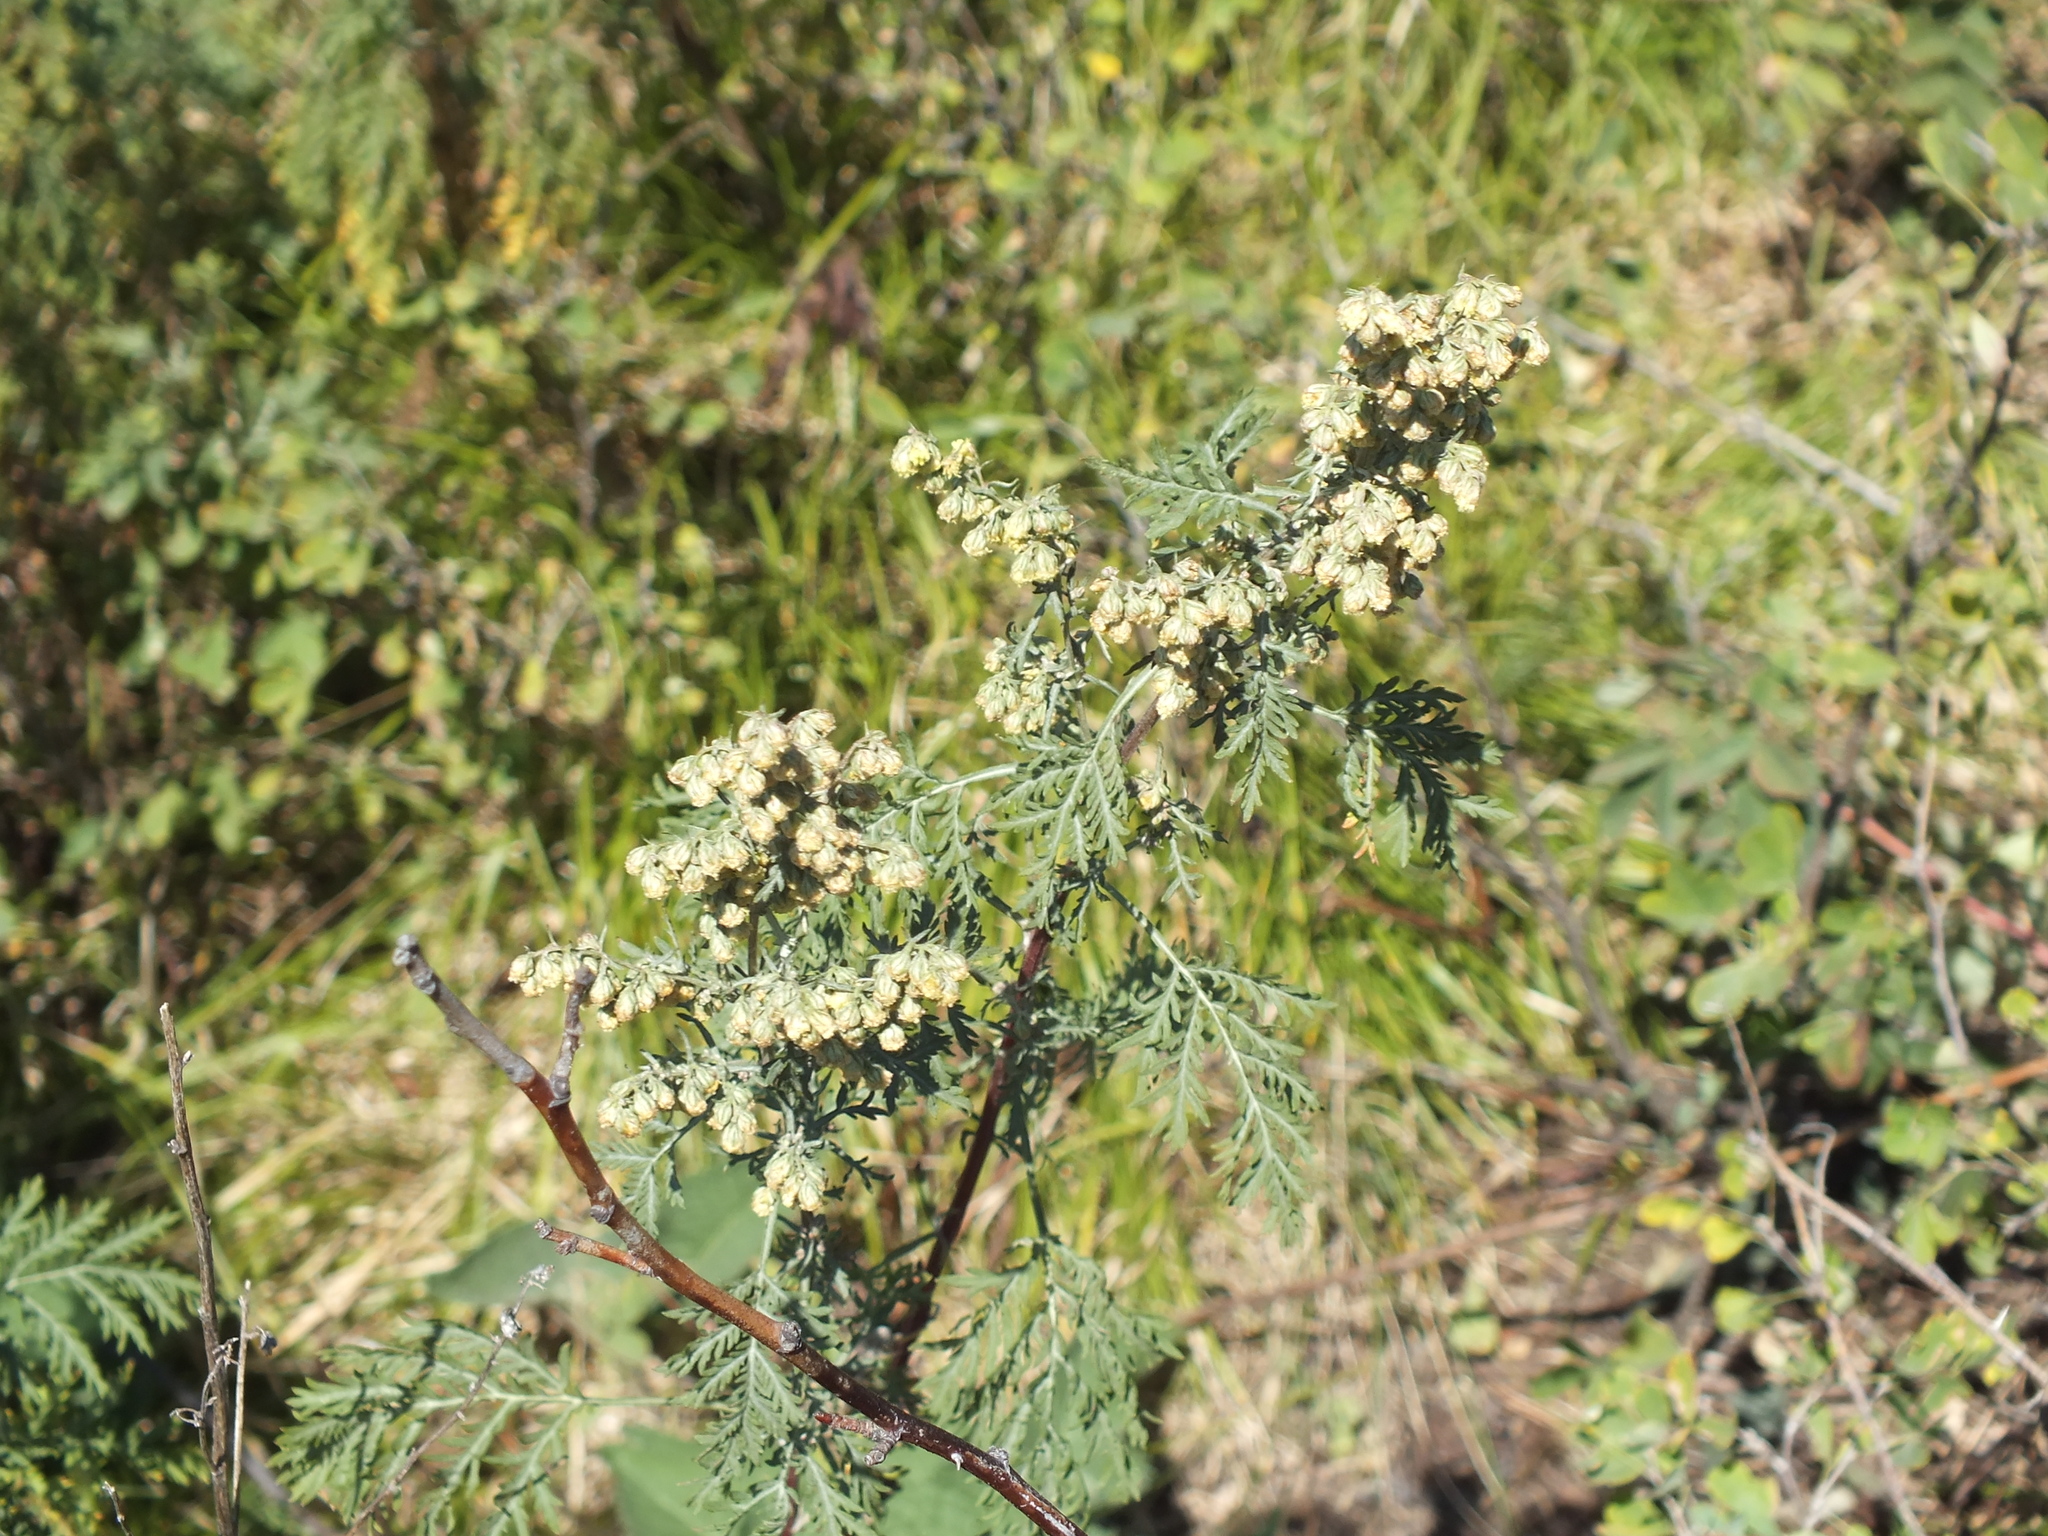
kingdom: Plantae
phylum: Tracheophyta
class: Magnoliopsida
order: Asterales
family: Asteraceae
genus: Artemisia
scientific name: Artemisia gmelinii
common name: Gmelin's wormwood
